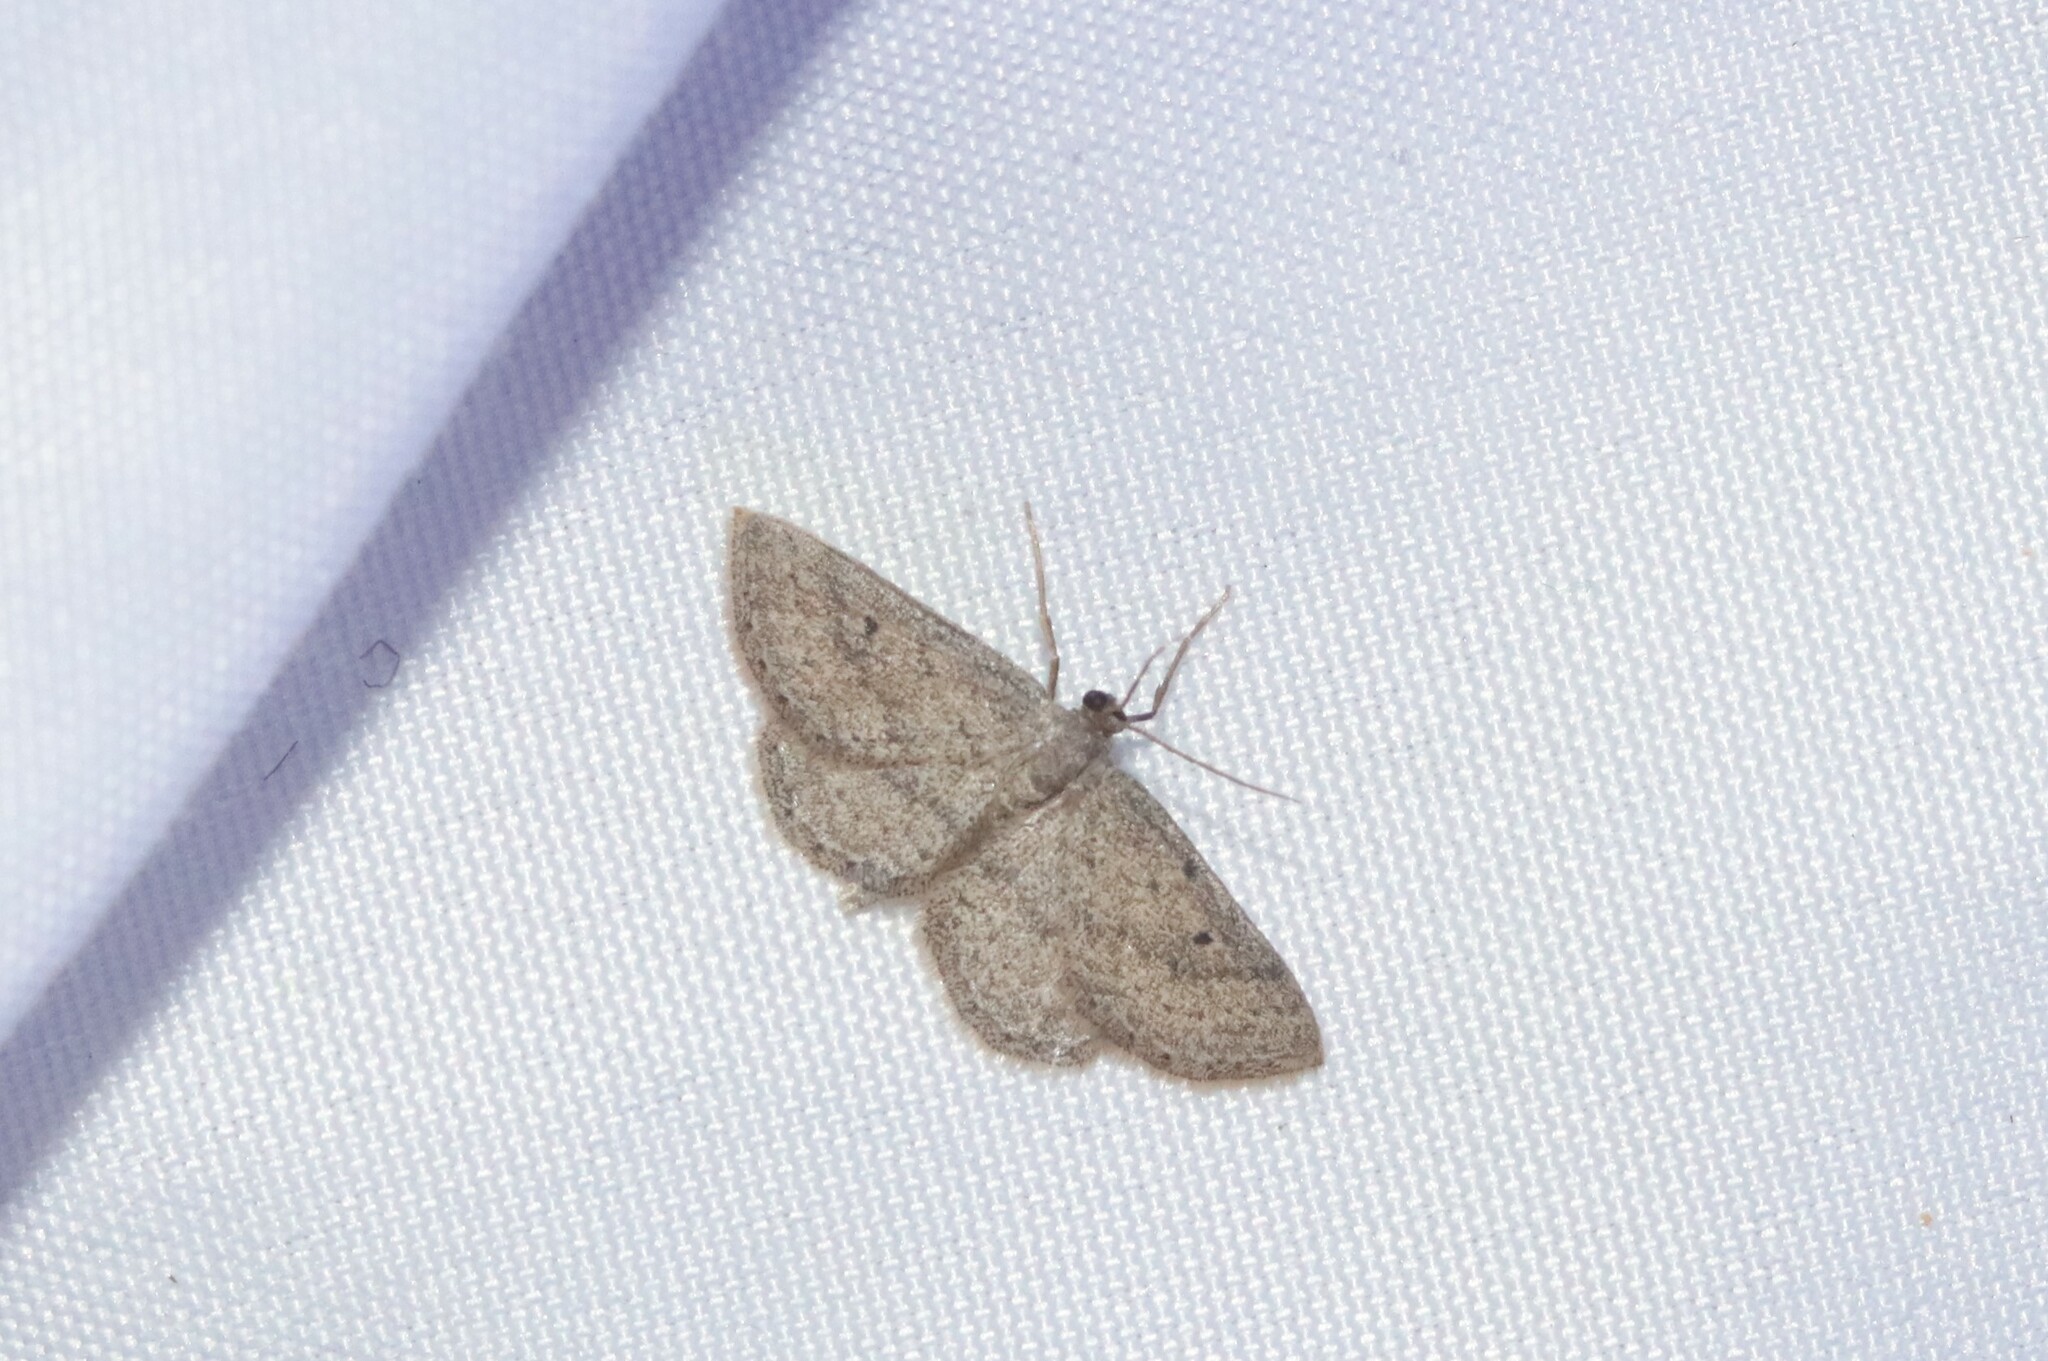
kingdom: Animalia
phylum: Arthropoda
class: Insecta
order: Lepidoptera
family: Geometridae
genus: Lobocleta
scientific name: Lobocleta ossularia
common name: Drab brown wave
